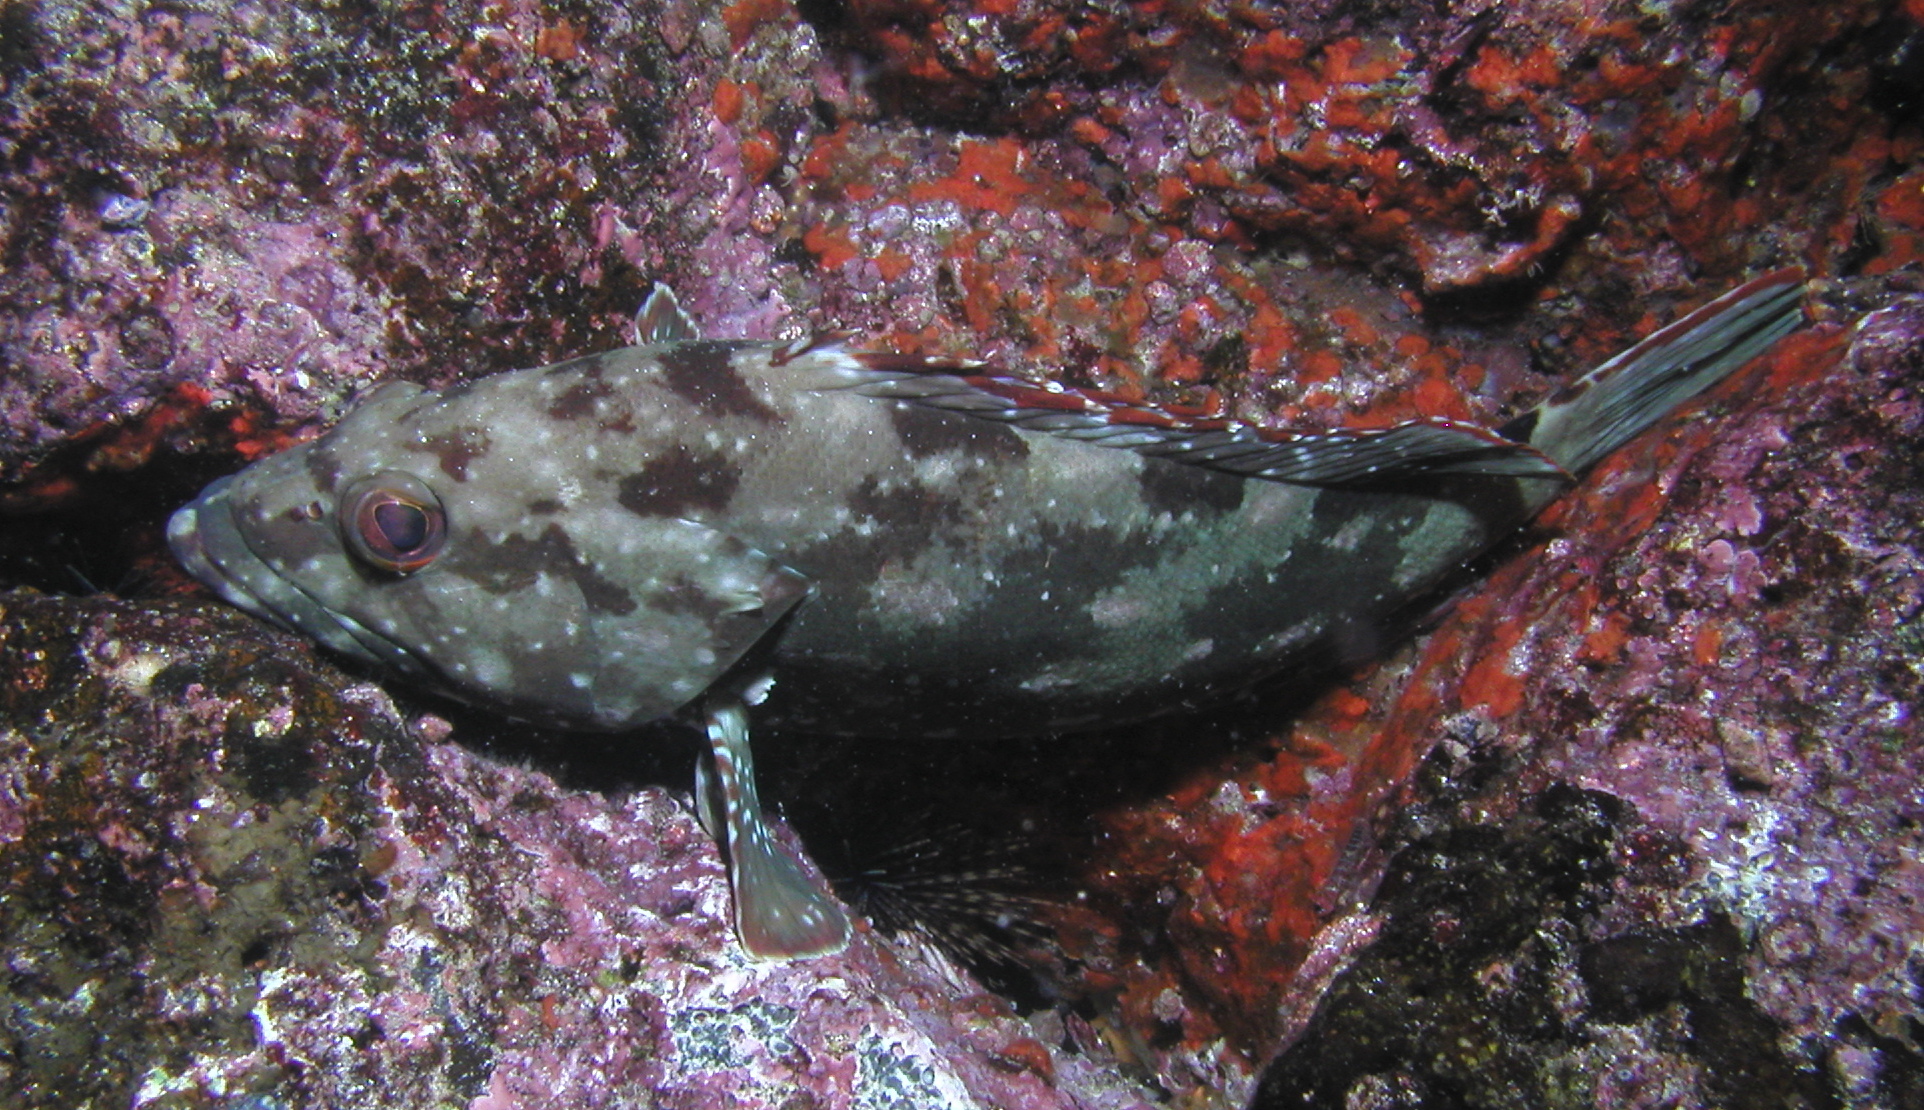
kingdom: Animalia
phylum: Chordata
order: Perciformes
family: Serranidae
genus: Epinephelus
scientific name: Epinephelus labriformis
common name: Flag cabrilla
